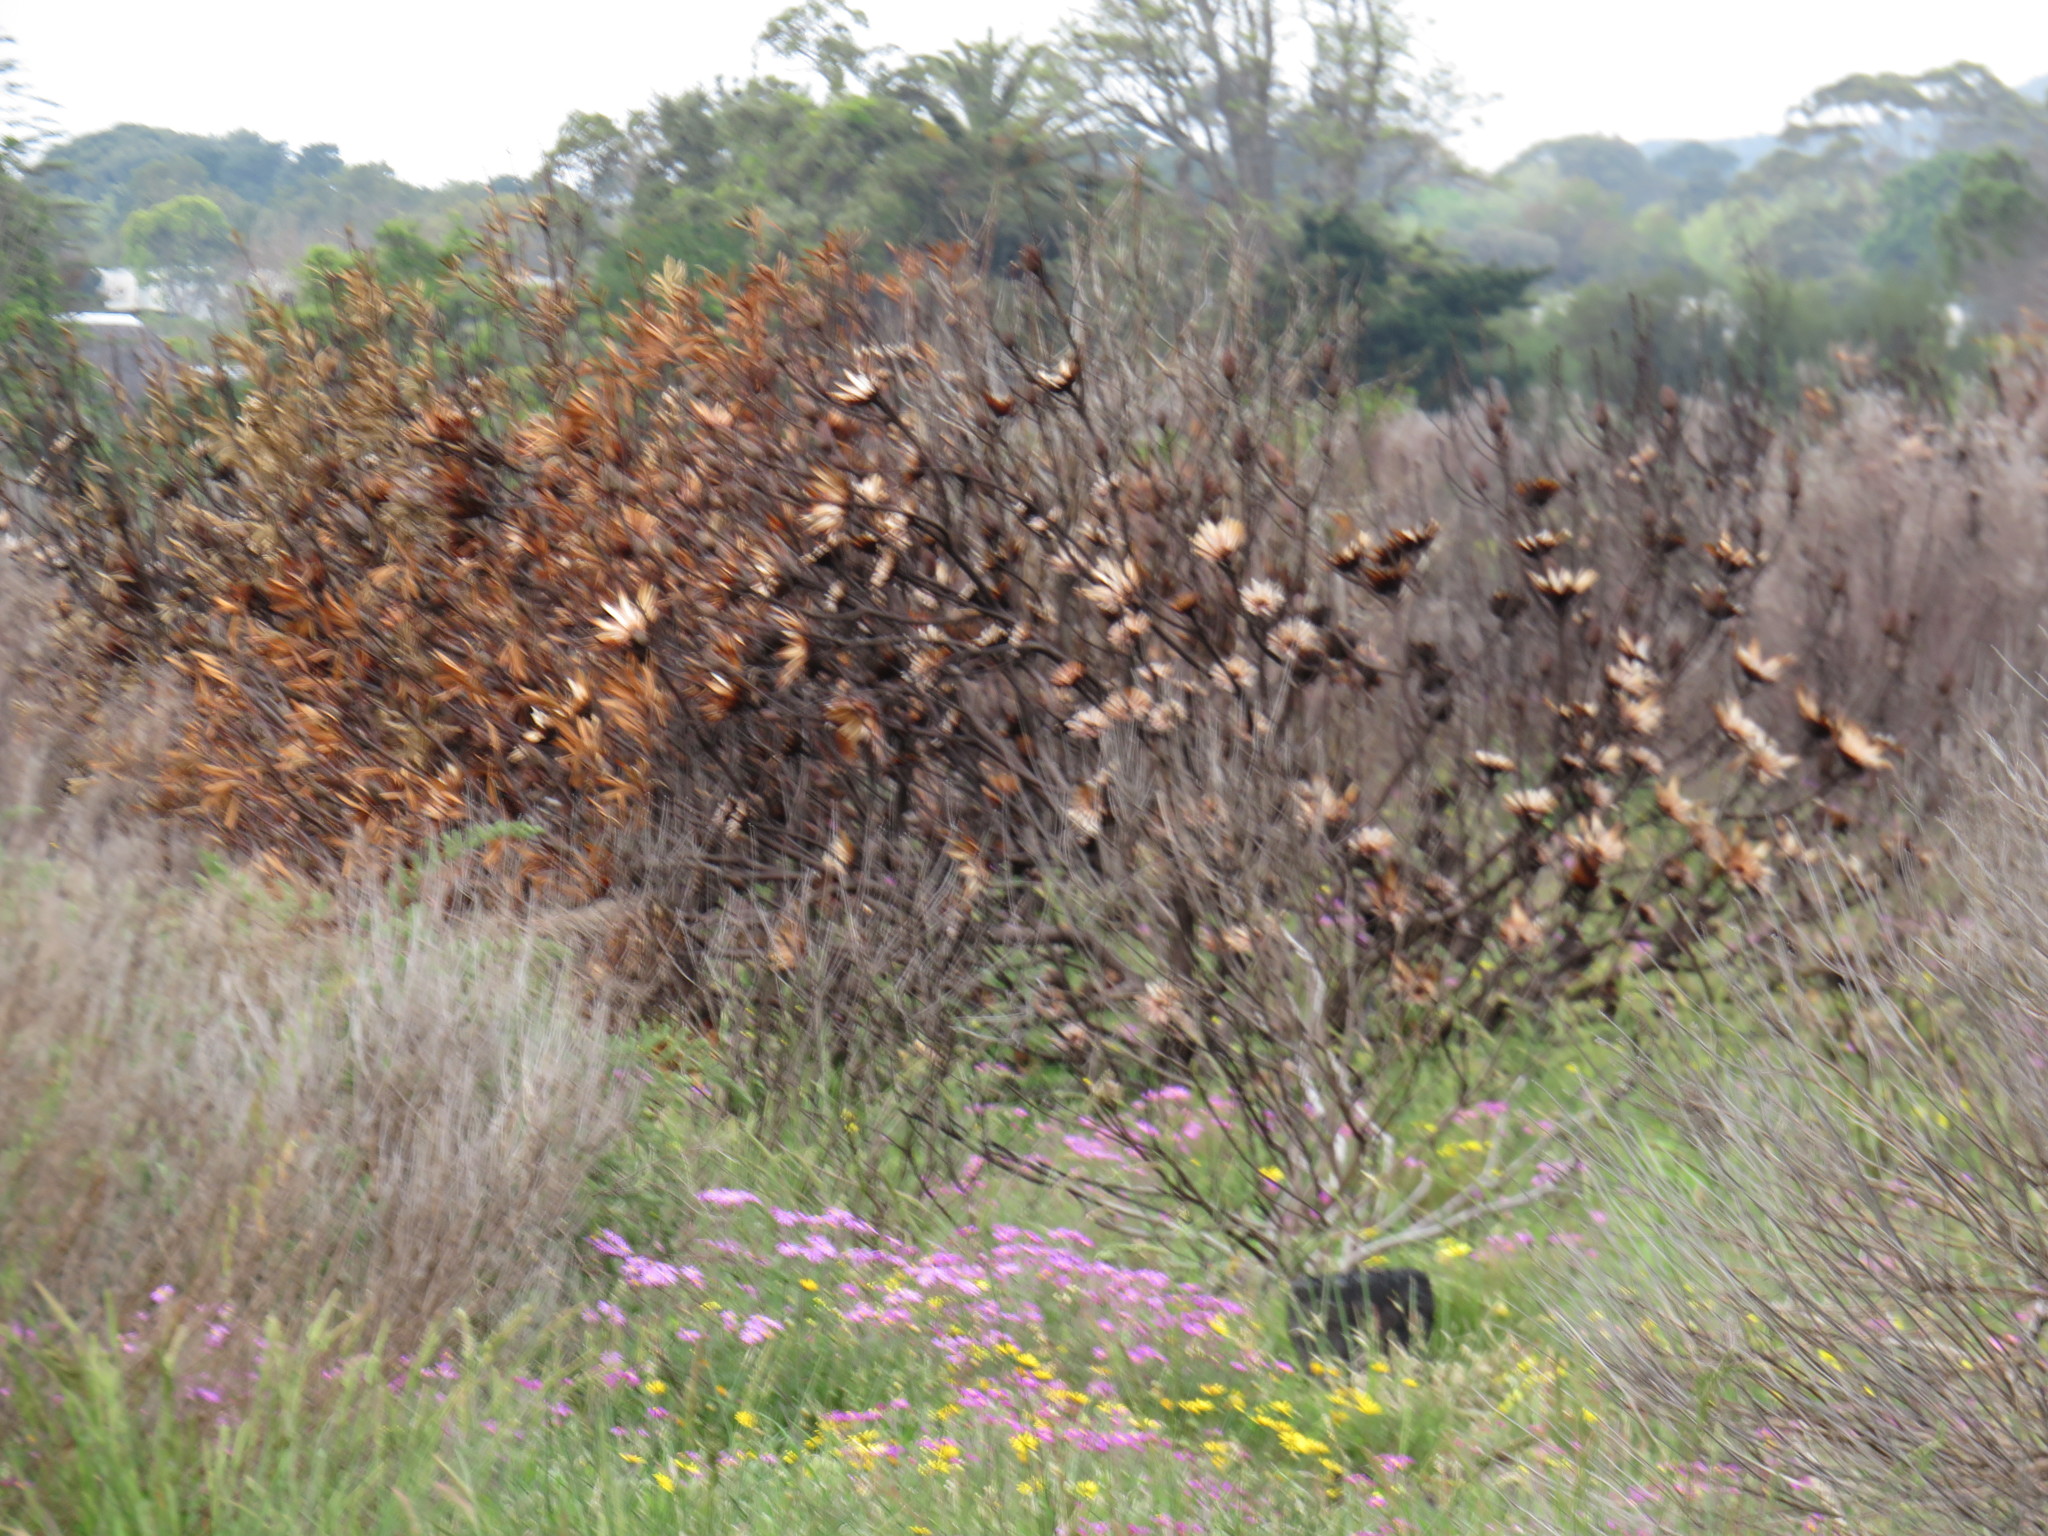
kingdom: Plantae
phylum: Tracheophyta
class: Magnoliopsida
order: Proteales
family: Proteaceae
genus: Protea
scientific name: Protea repens
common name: Sugarbush
